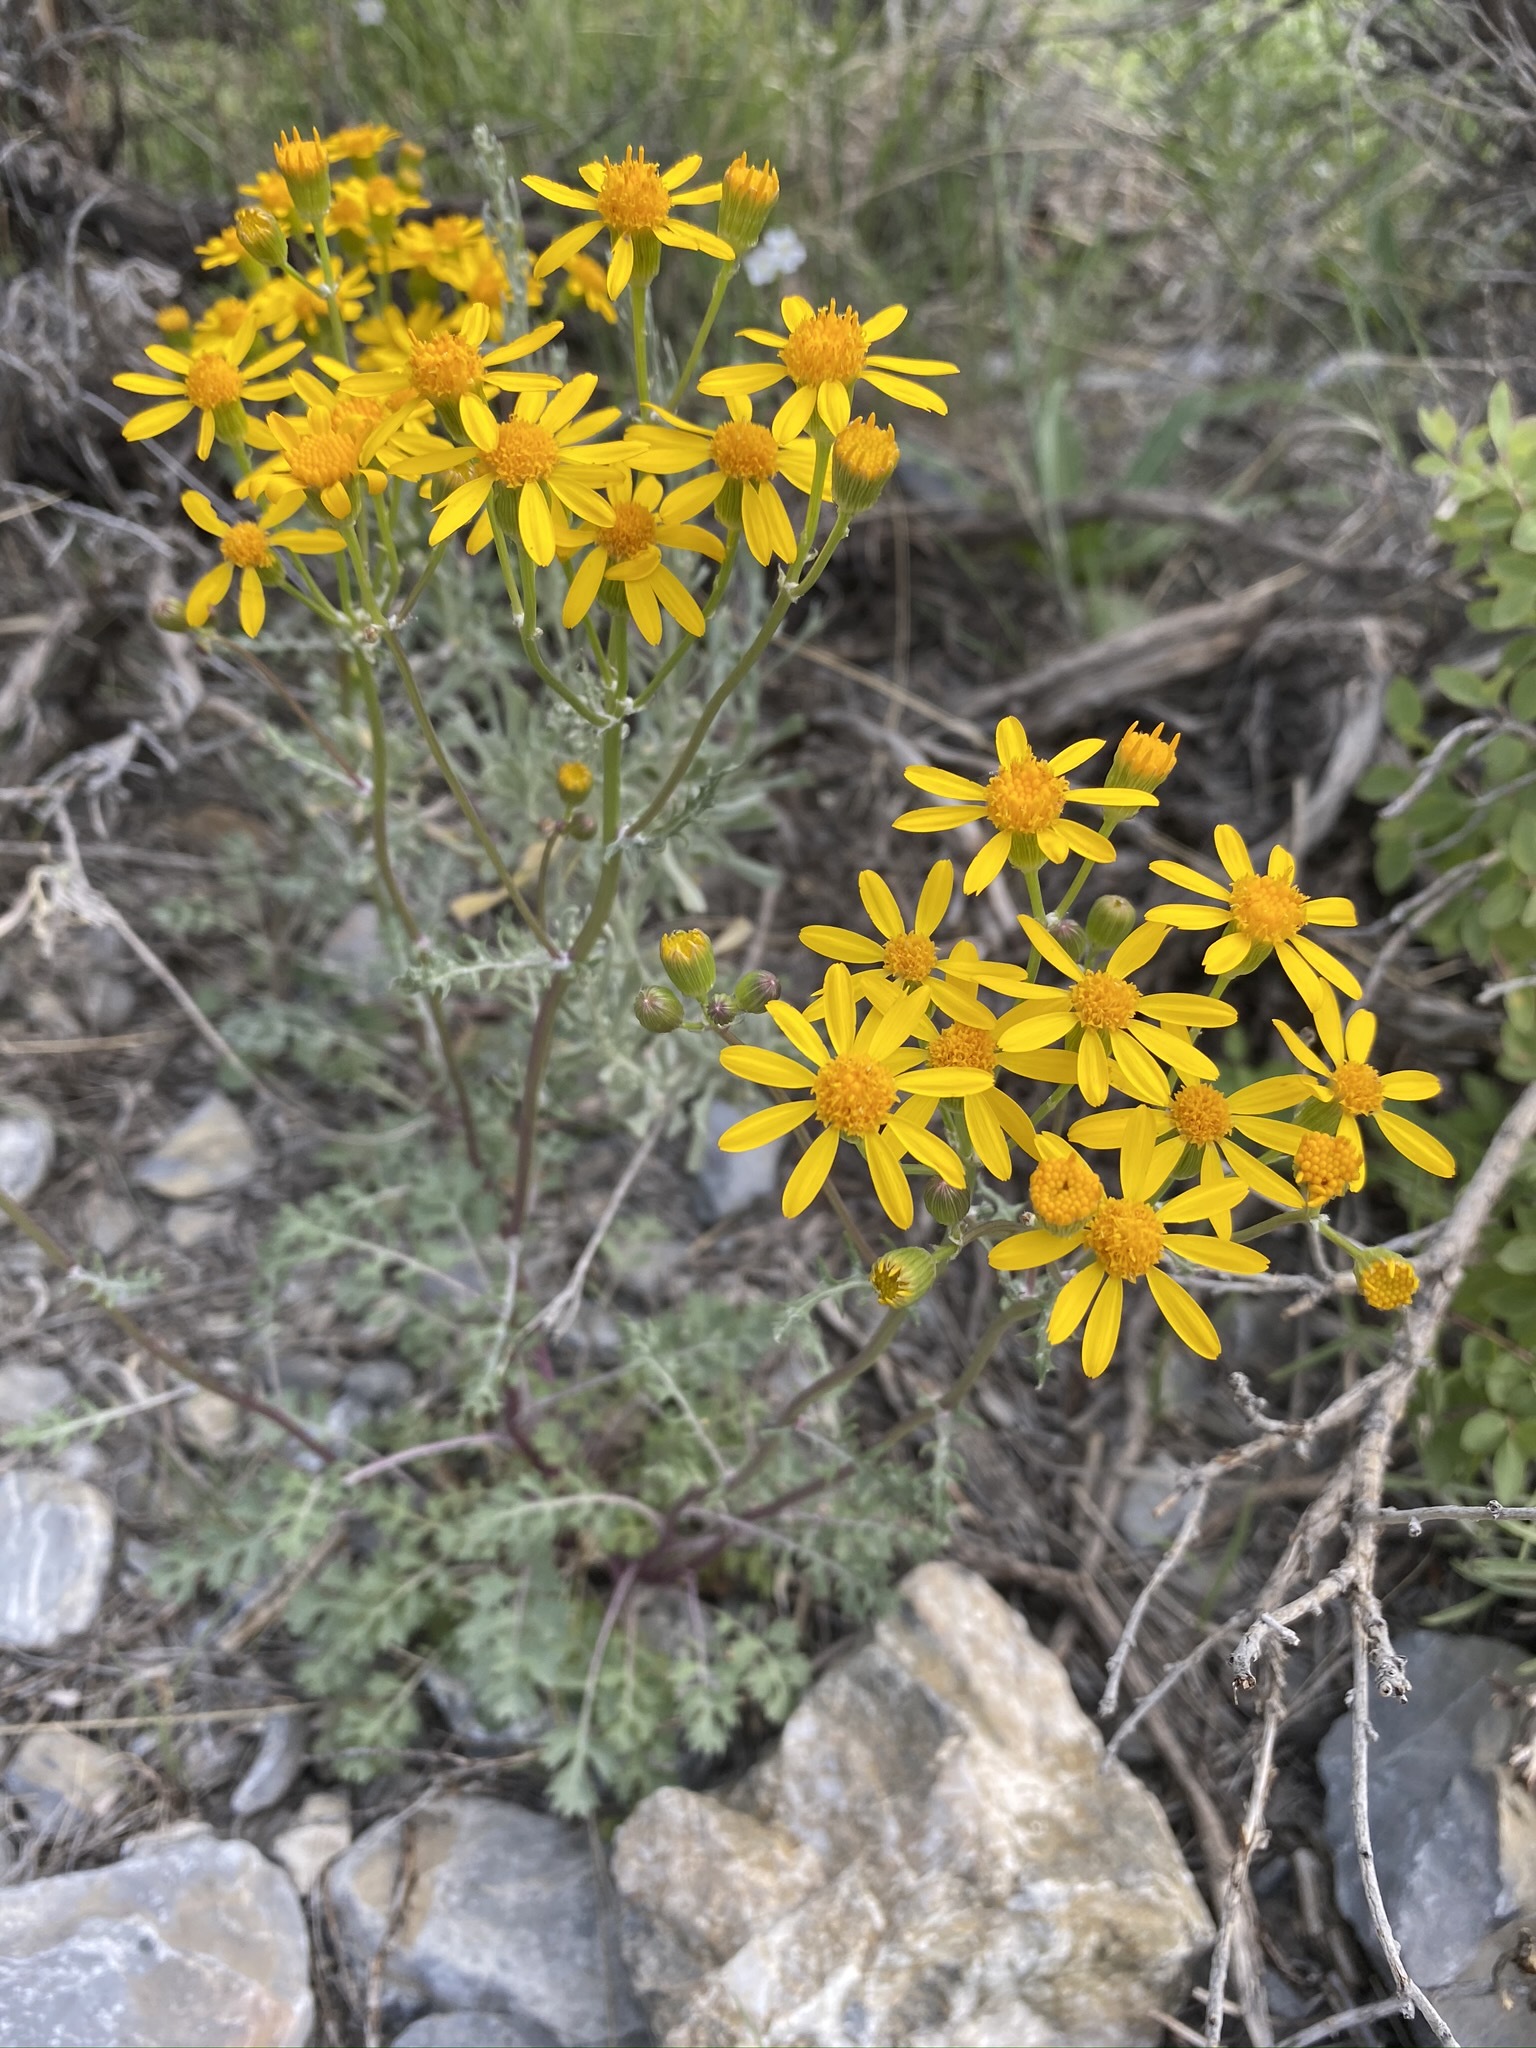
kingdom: Plantae
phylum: Tracheophyta
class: Magnoliopsida
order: Asterales
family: Asteraceae
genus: Packera
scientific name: Packera multilobata
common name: Lobe-leaf groundsel
